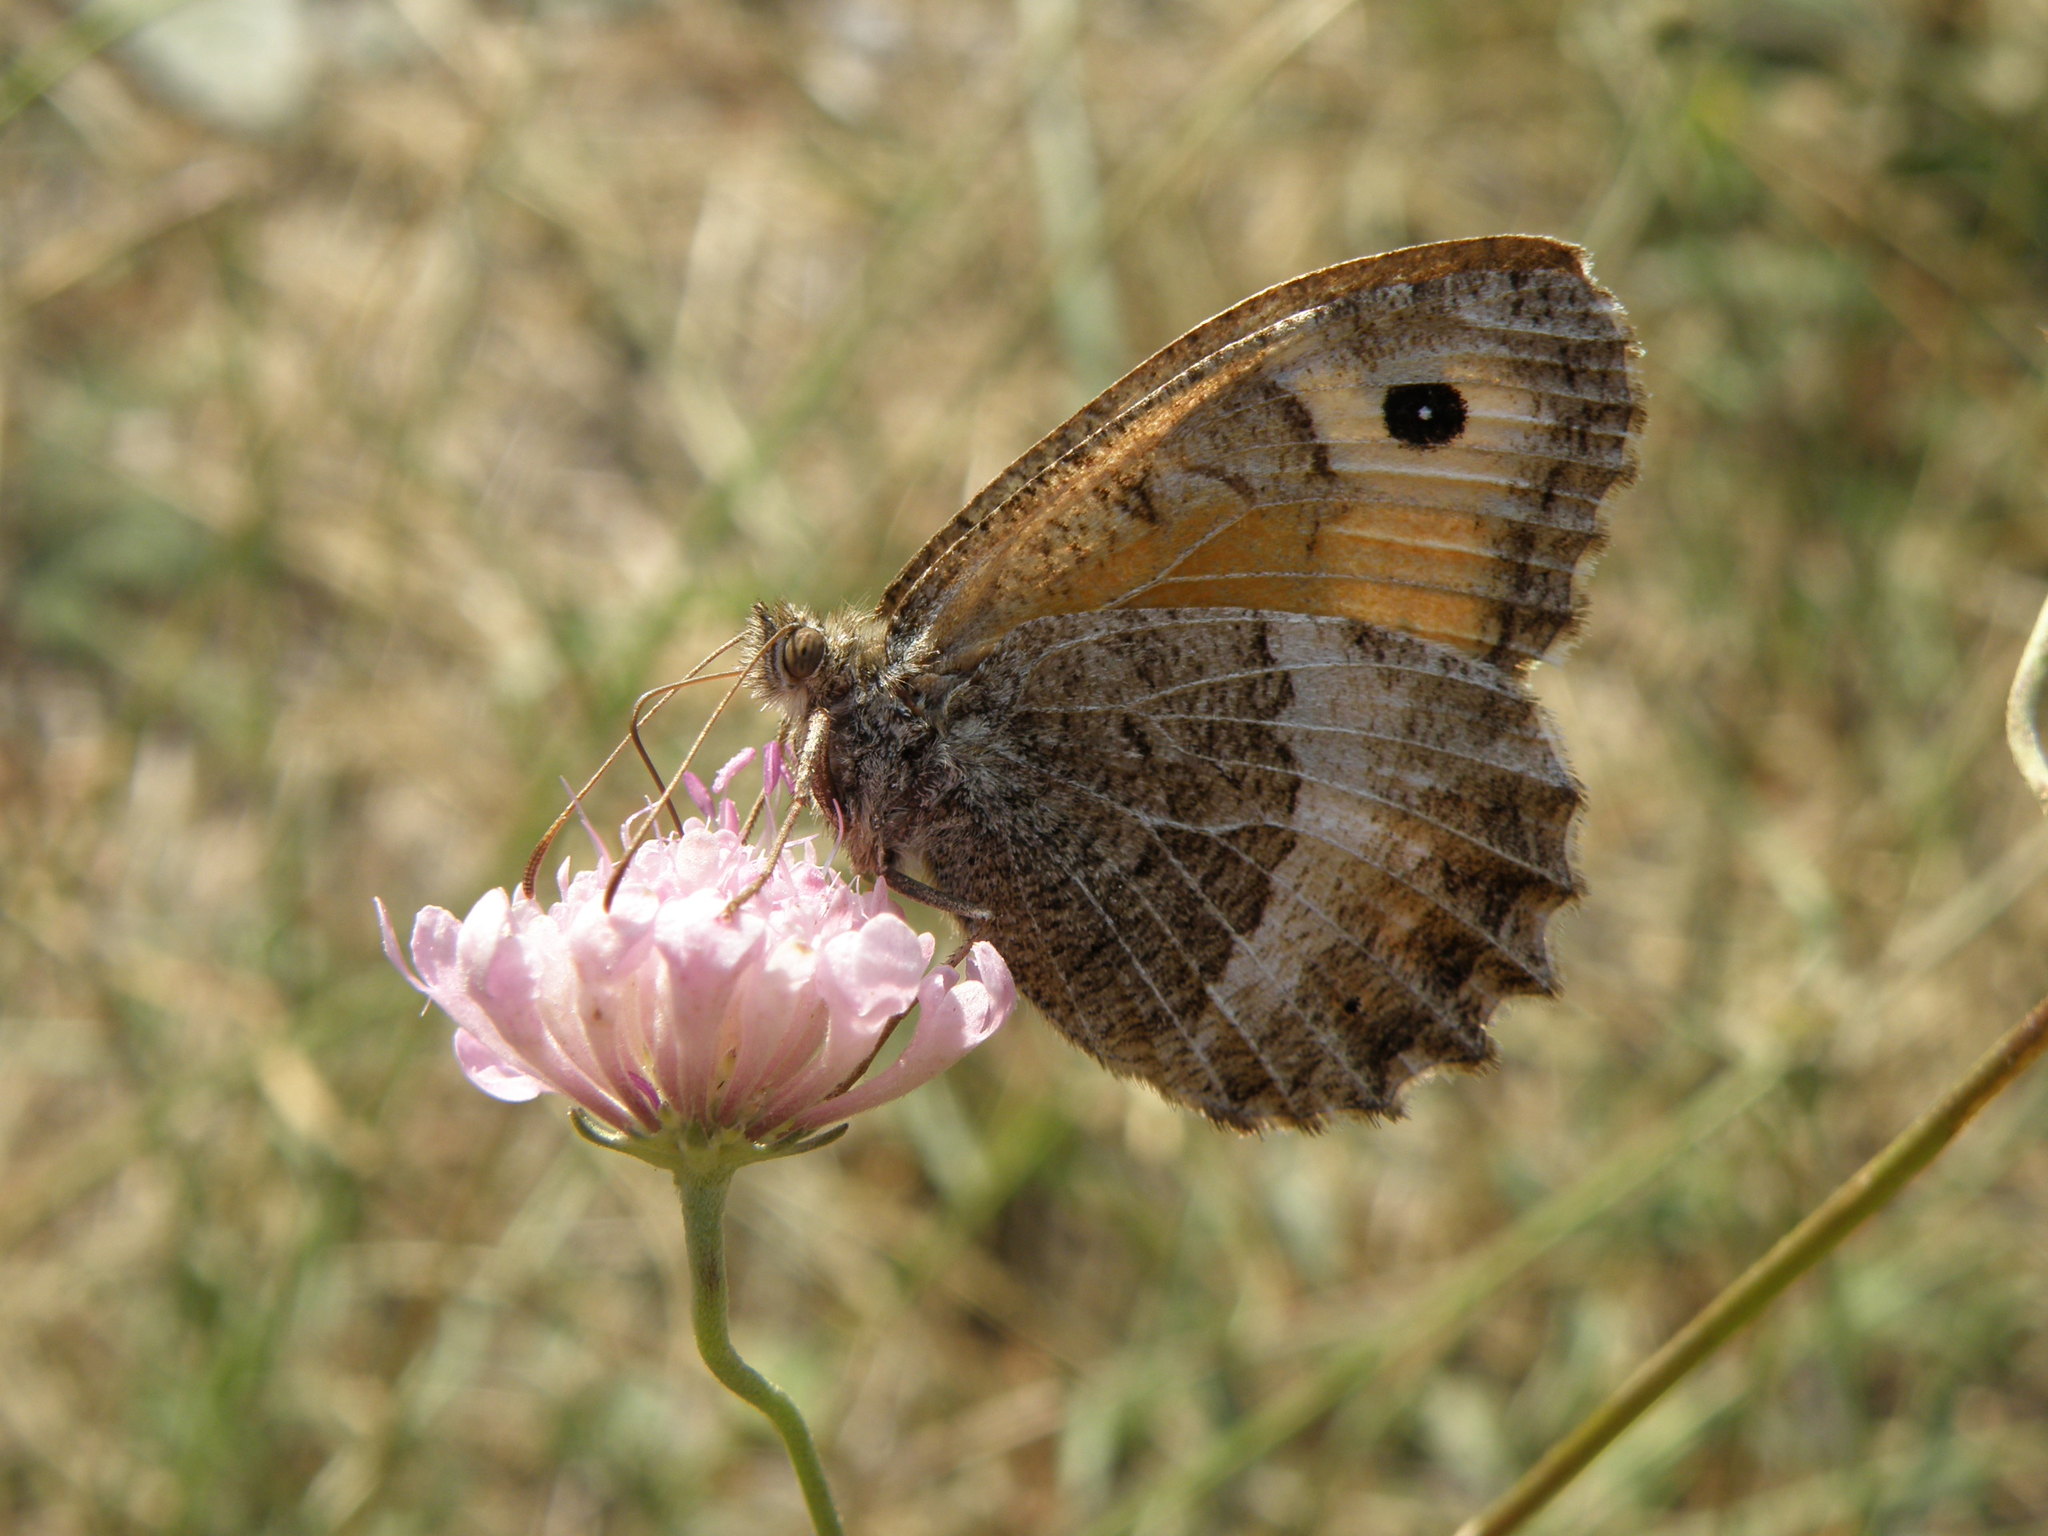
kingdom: Animalia
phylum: Arthropoda
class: Insecta
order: Lepidoptera
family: Nymphalidae
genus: Arethusana
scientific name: Arethusana arethusa
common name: False grayling
